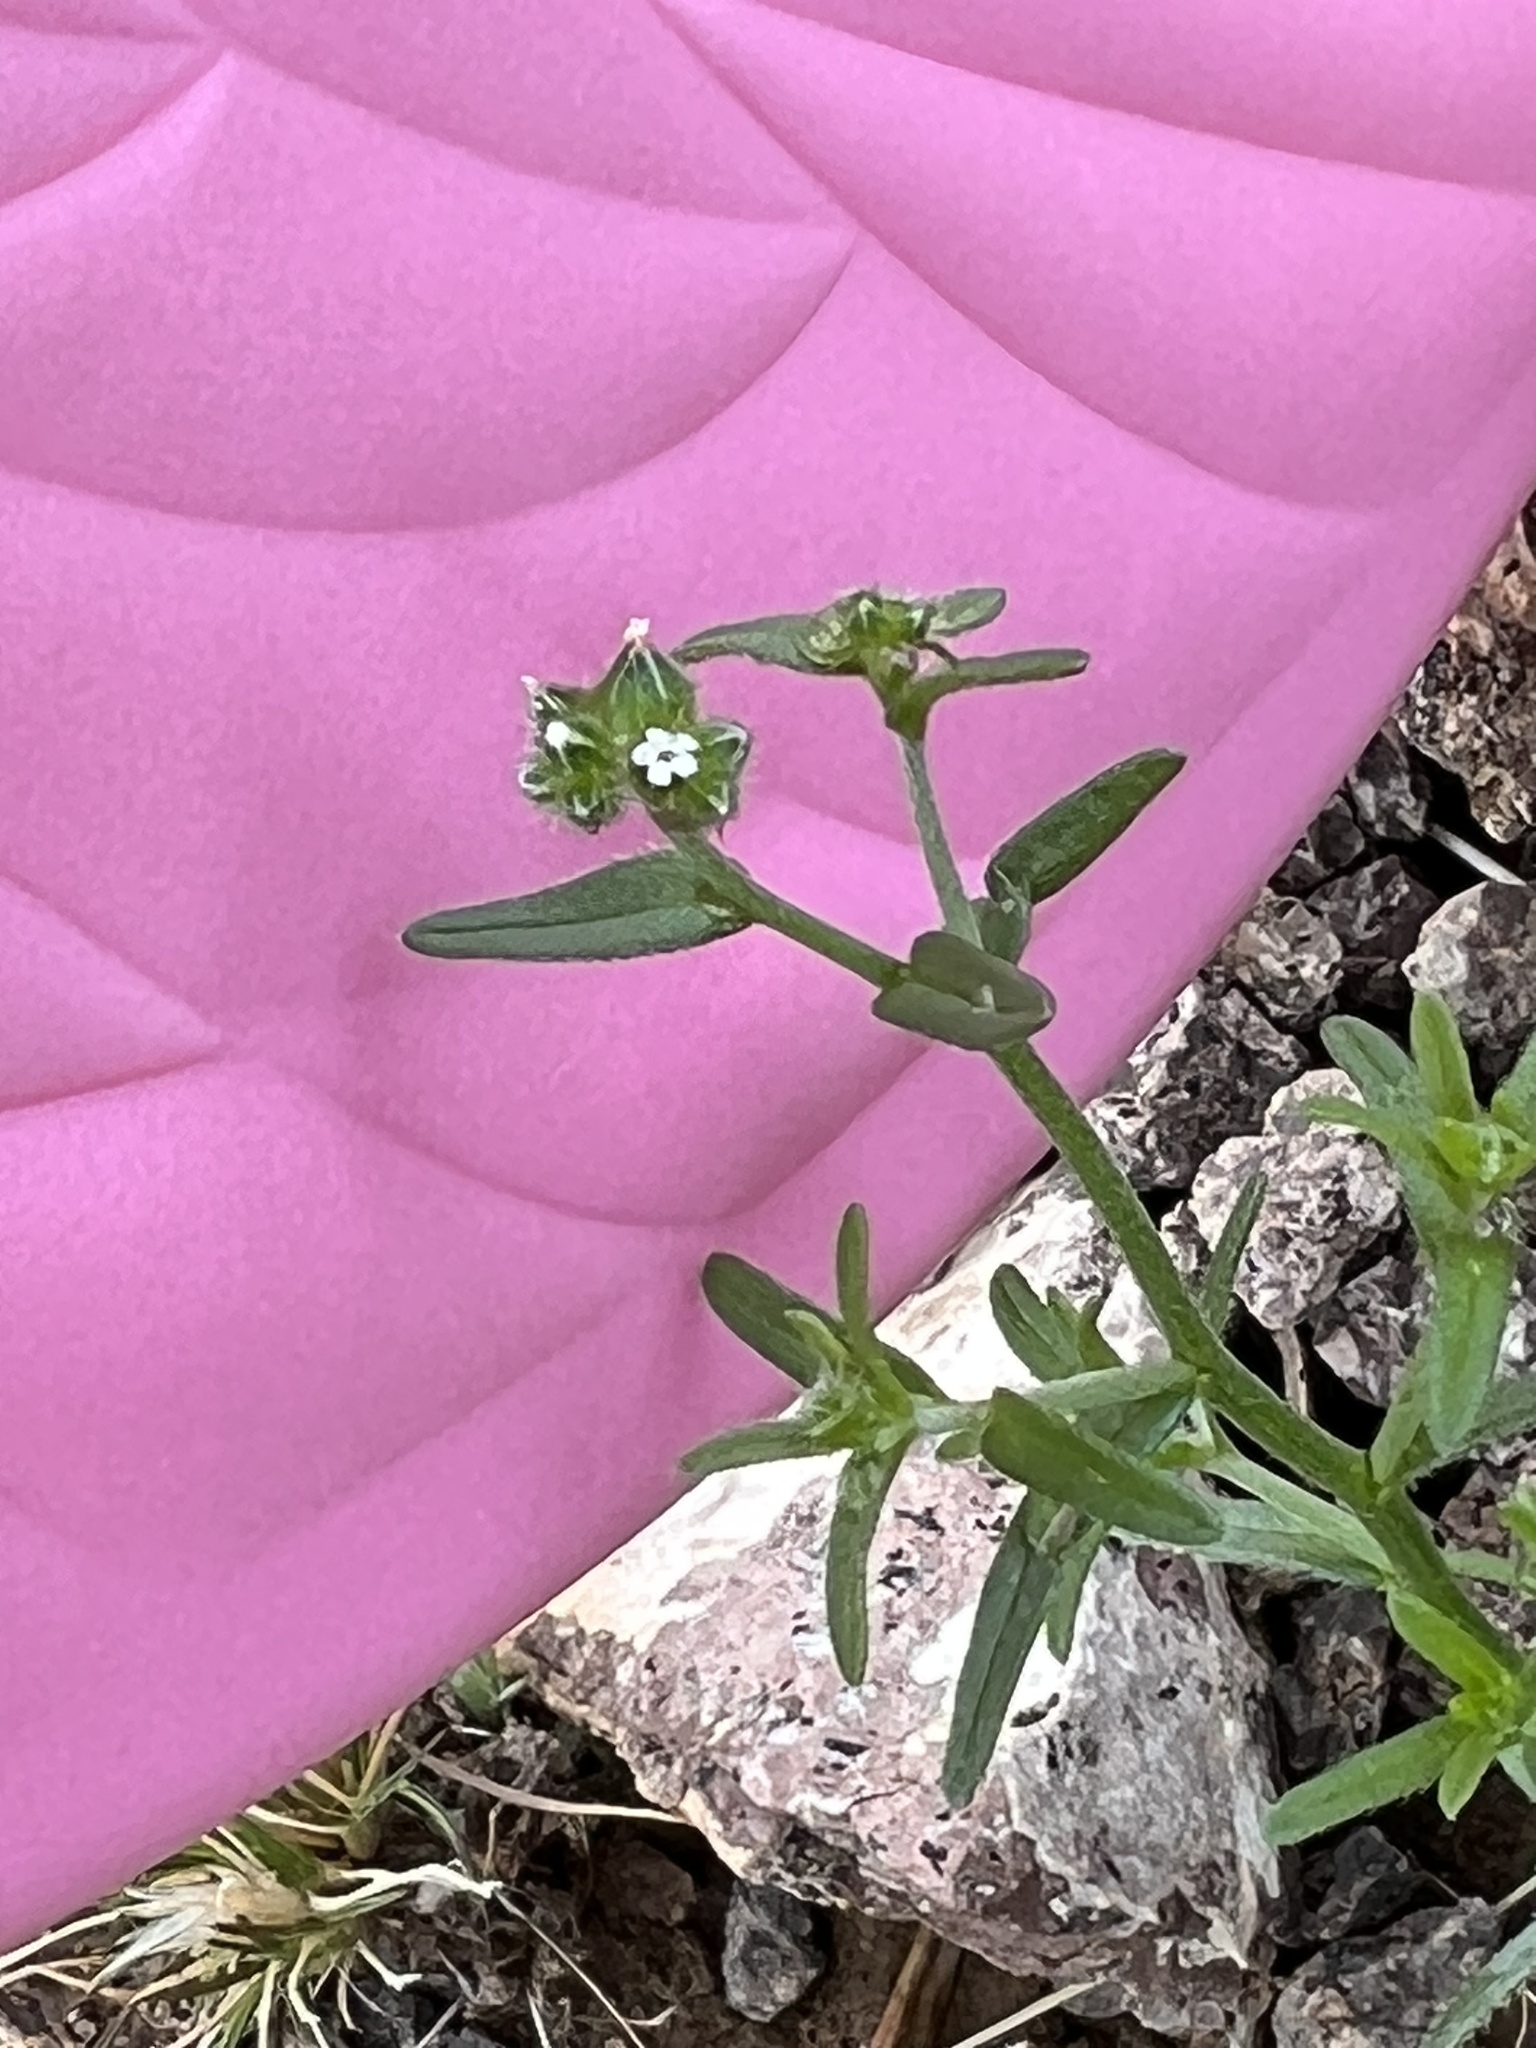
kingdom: Plantae
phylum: Tracheophyta
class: Magnoliopsida
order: Boraginales
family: Boraginaceae
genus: Cryptantha
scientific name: Cryptantha pterocarya
